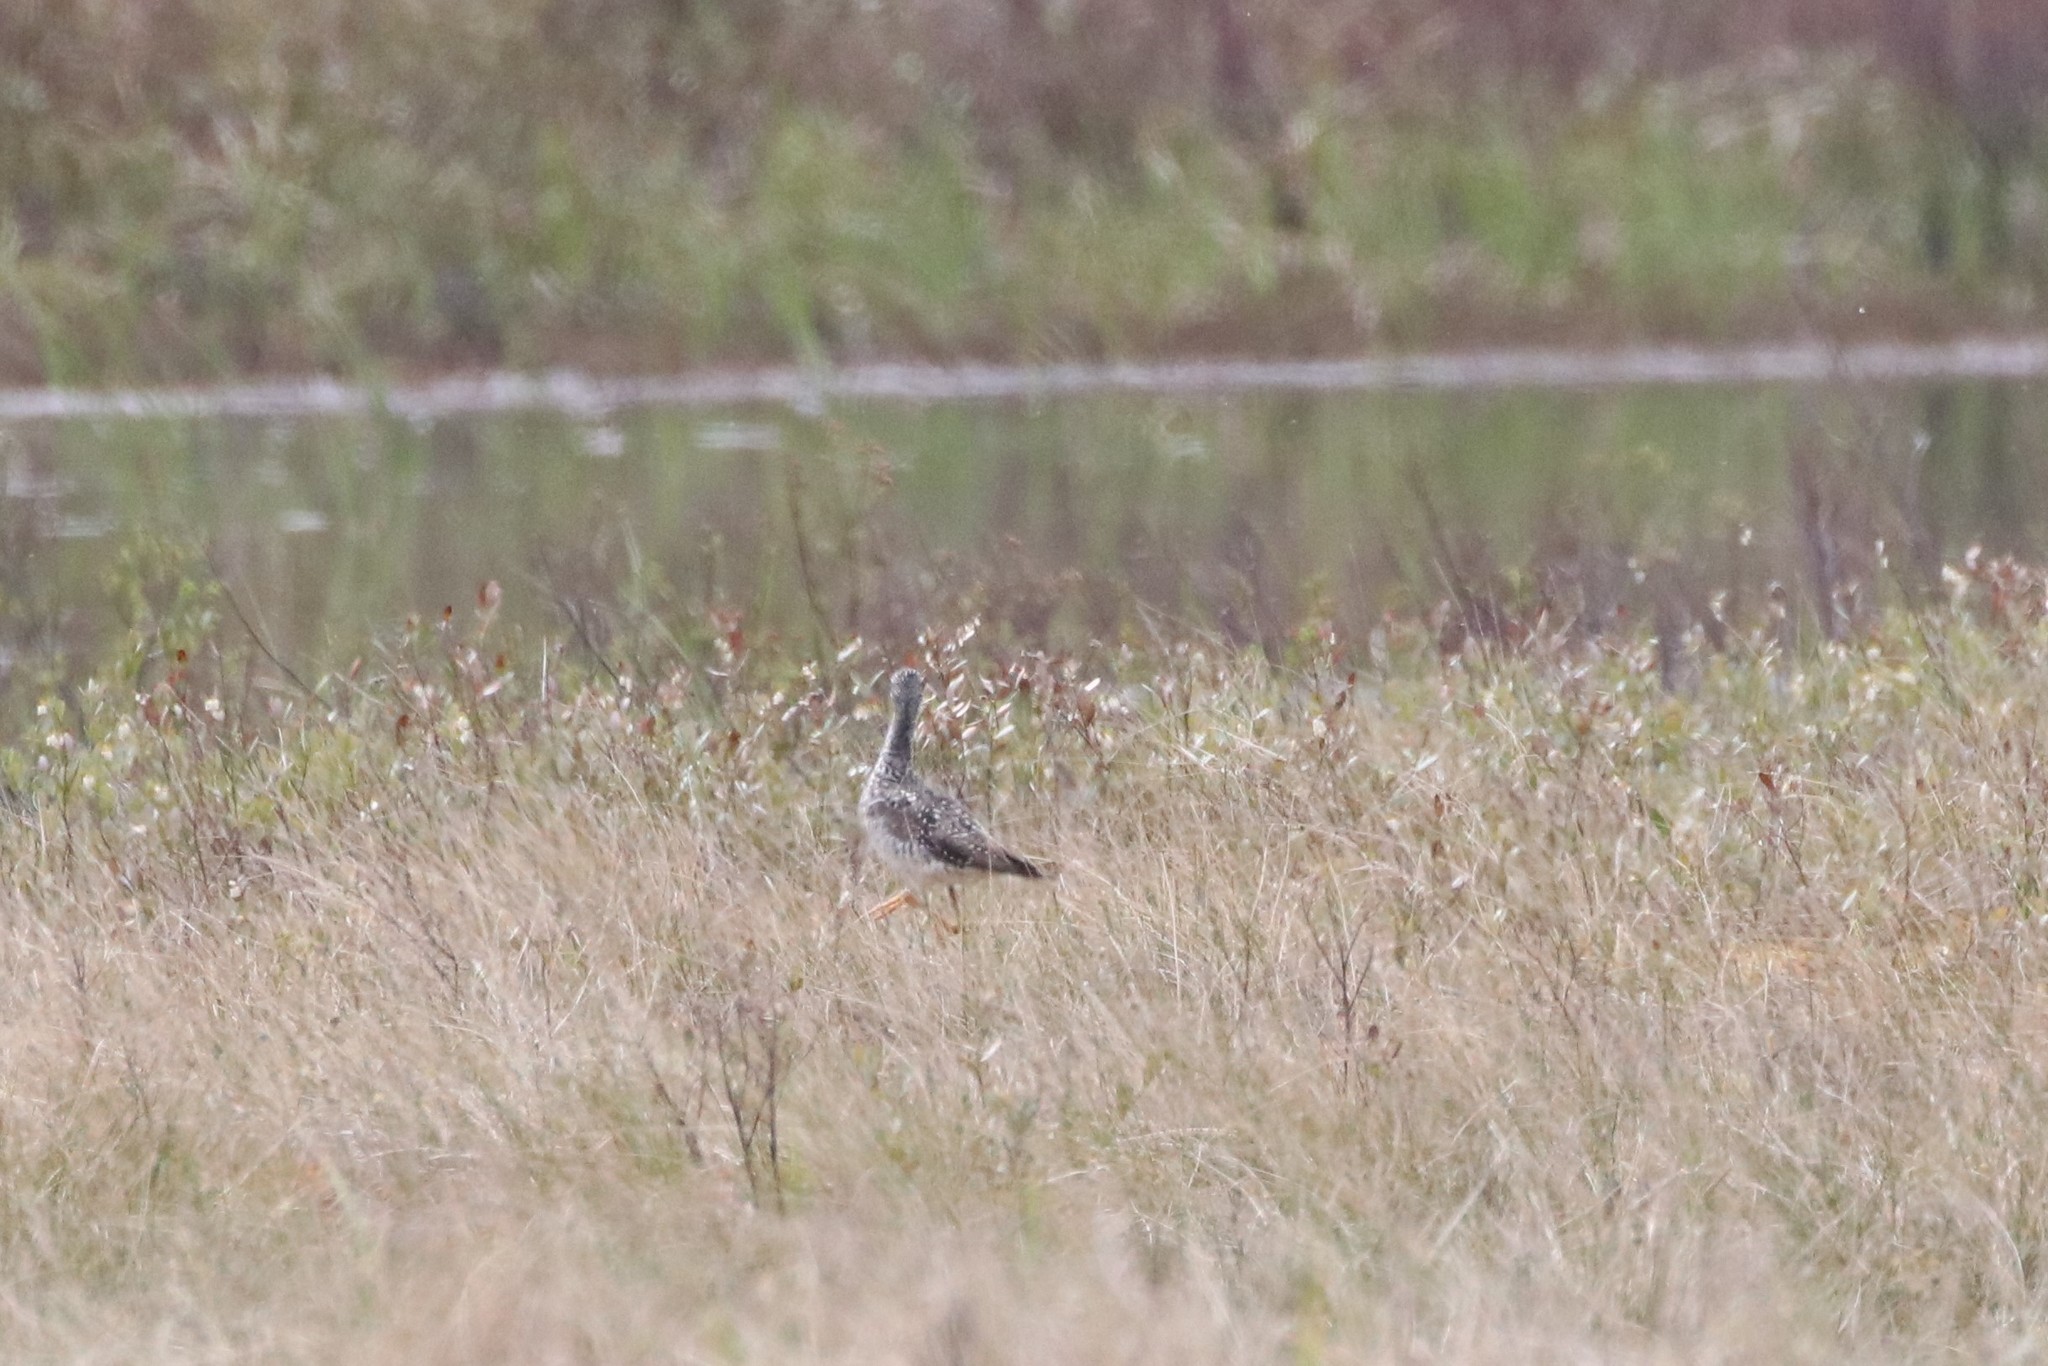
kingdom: Animalia
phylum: Chordata
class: Aves
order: Charadriiformes
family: Scolopacidae
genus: Tringa
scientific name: Tringa melanoleuca
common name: Greater yellowlegs
